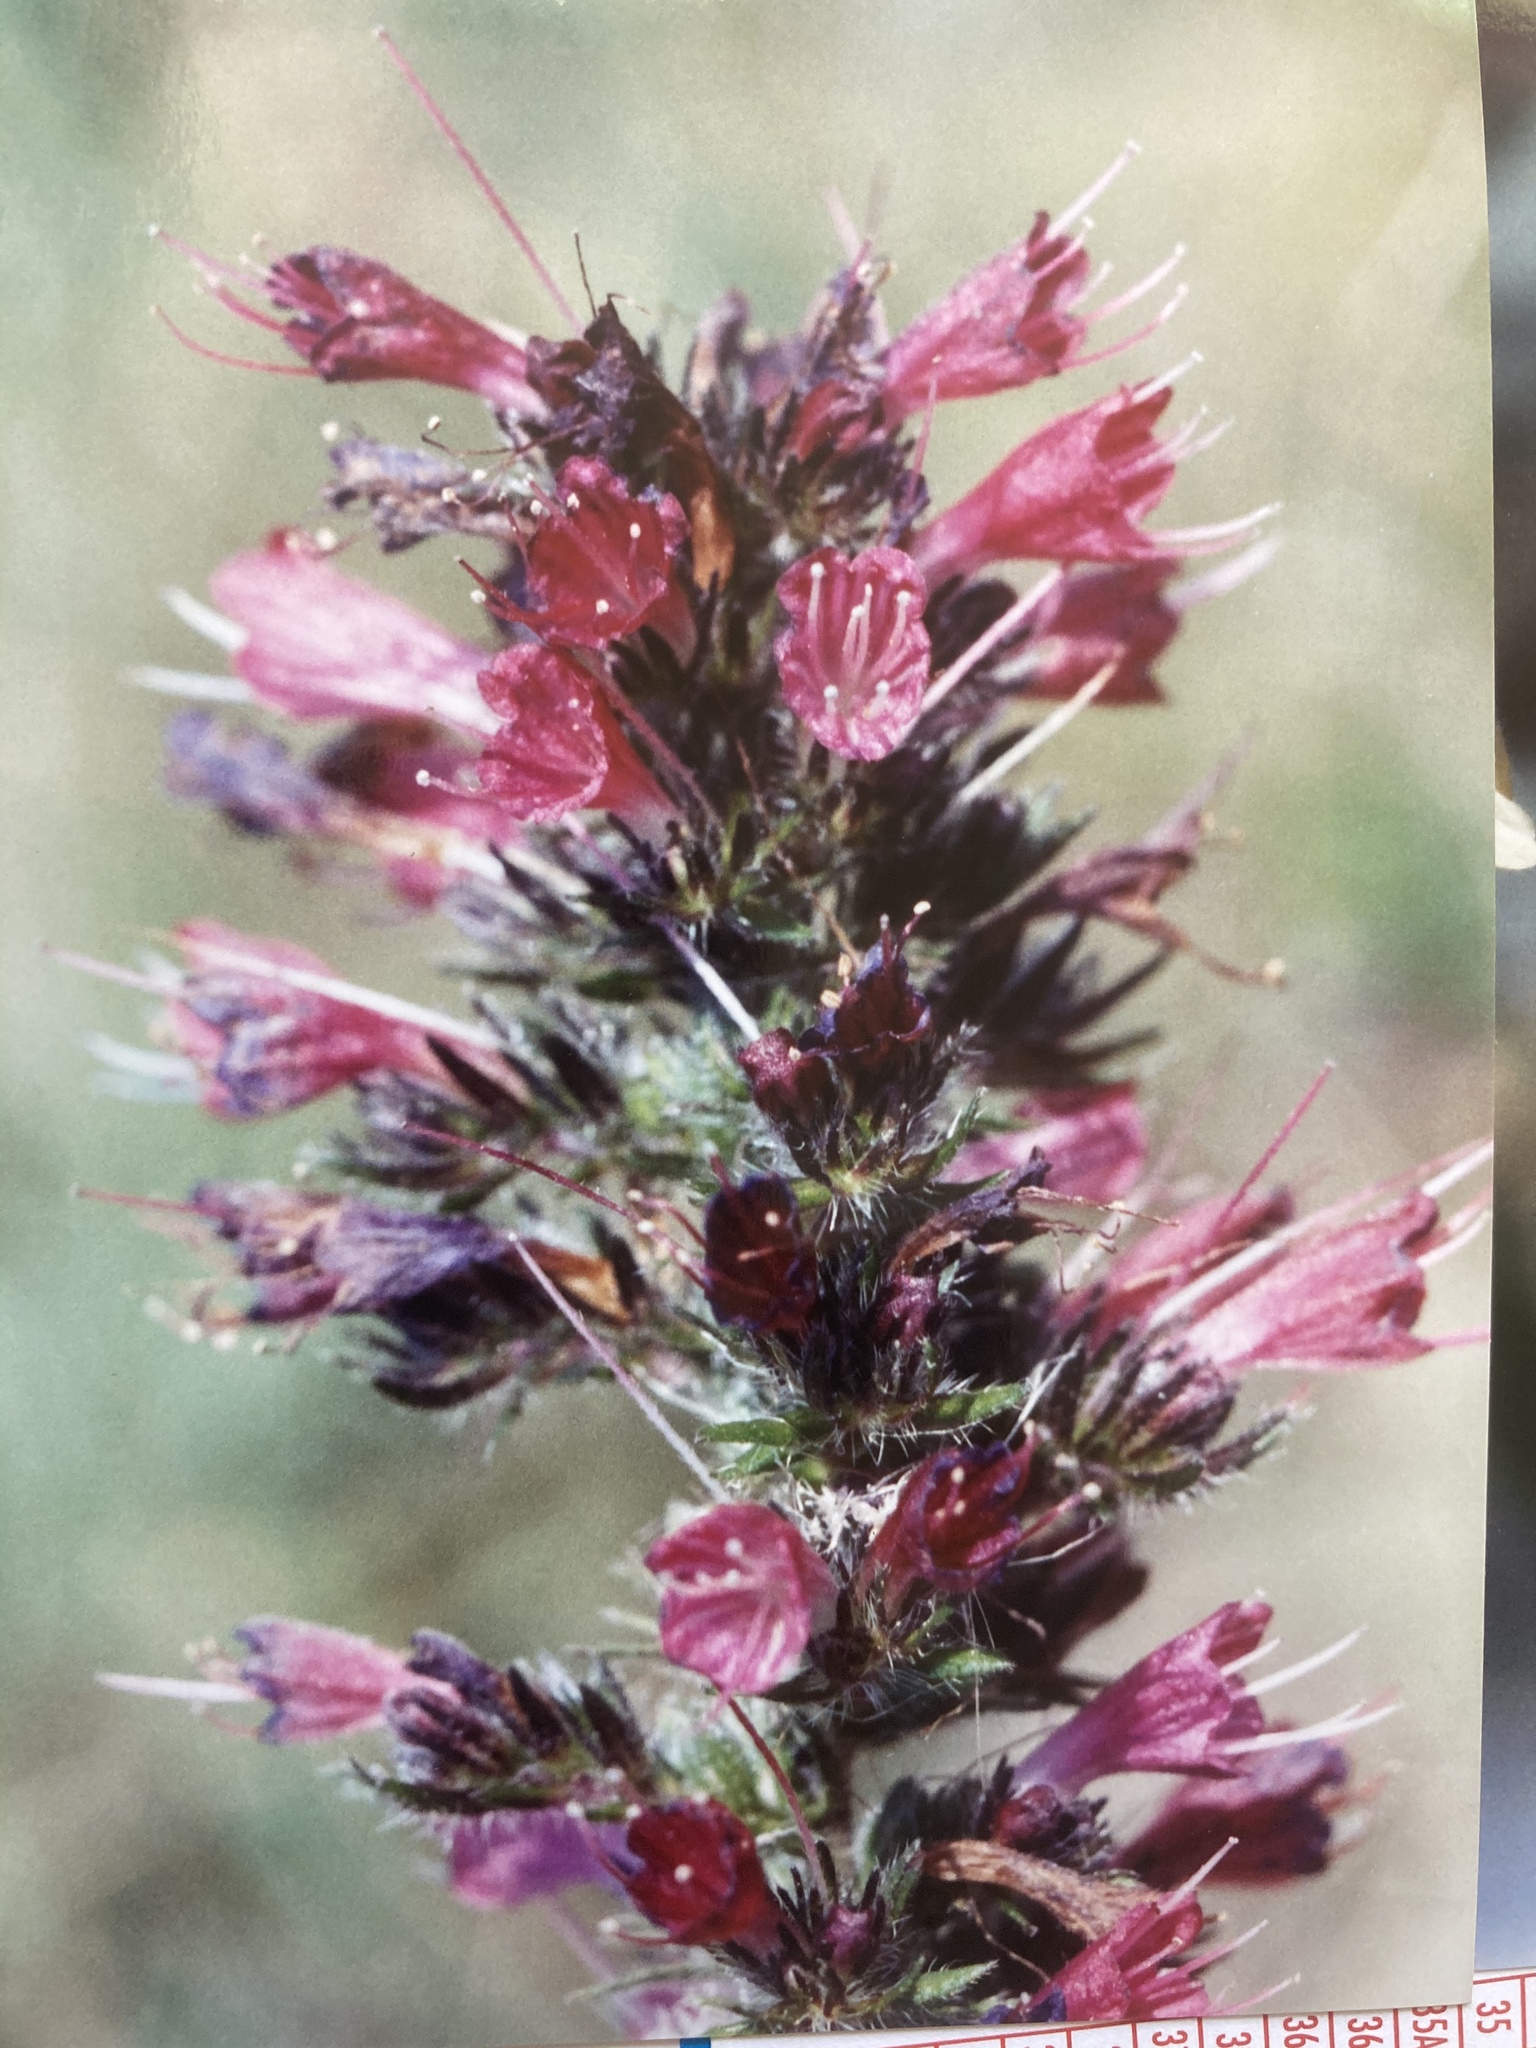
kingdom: Plantae
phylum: Tracheophyta
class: Magnoliopsida
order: Boraginales
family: Boraginaceae
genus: Pontechium
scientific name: Pontechium maculatum
